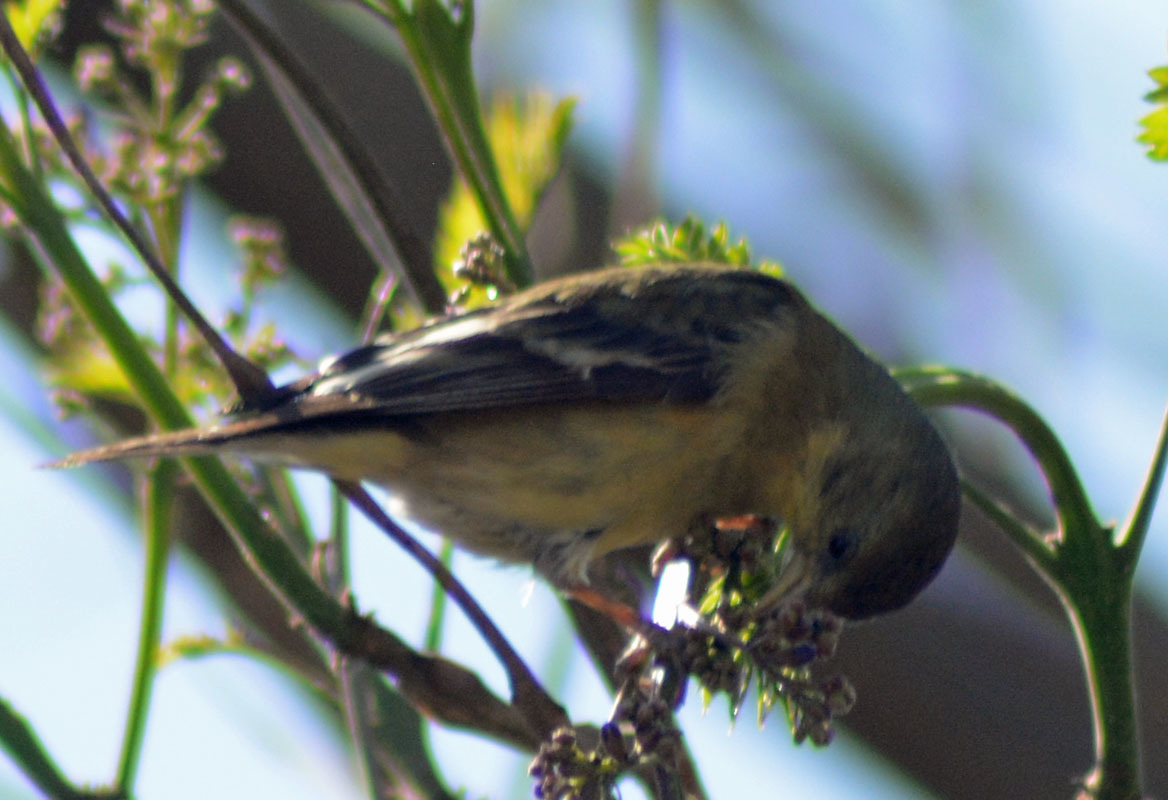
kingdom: Animalia
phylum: Chordata
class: Aves
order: Passeriformes
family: Fringillidae
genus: Spinus
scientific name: Spinus psaltria
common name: Lesser goldfinch
